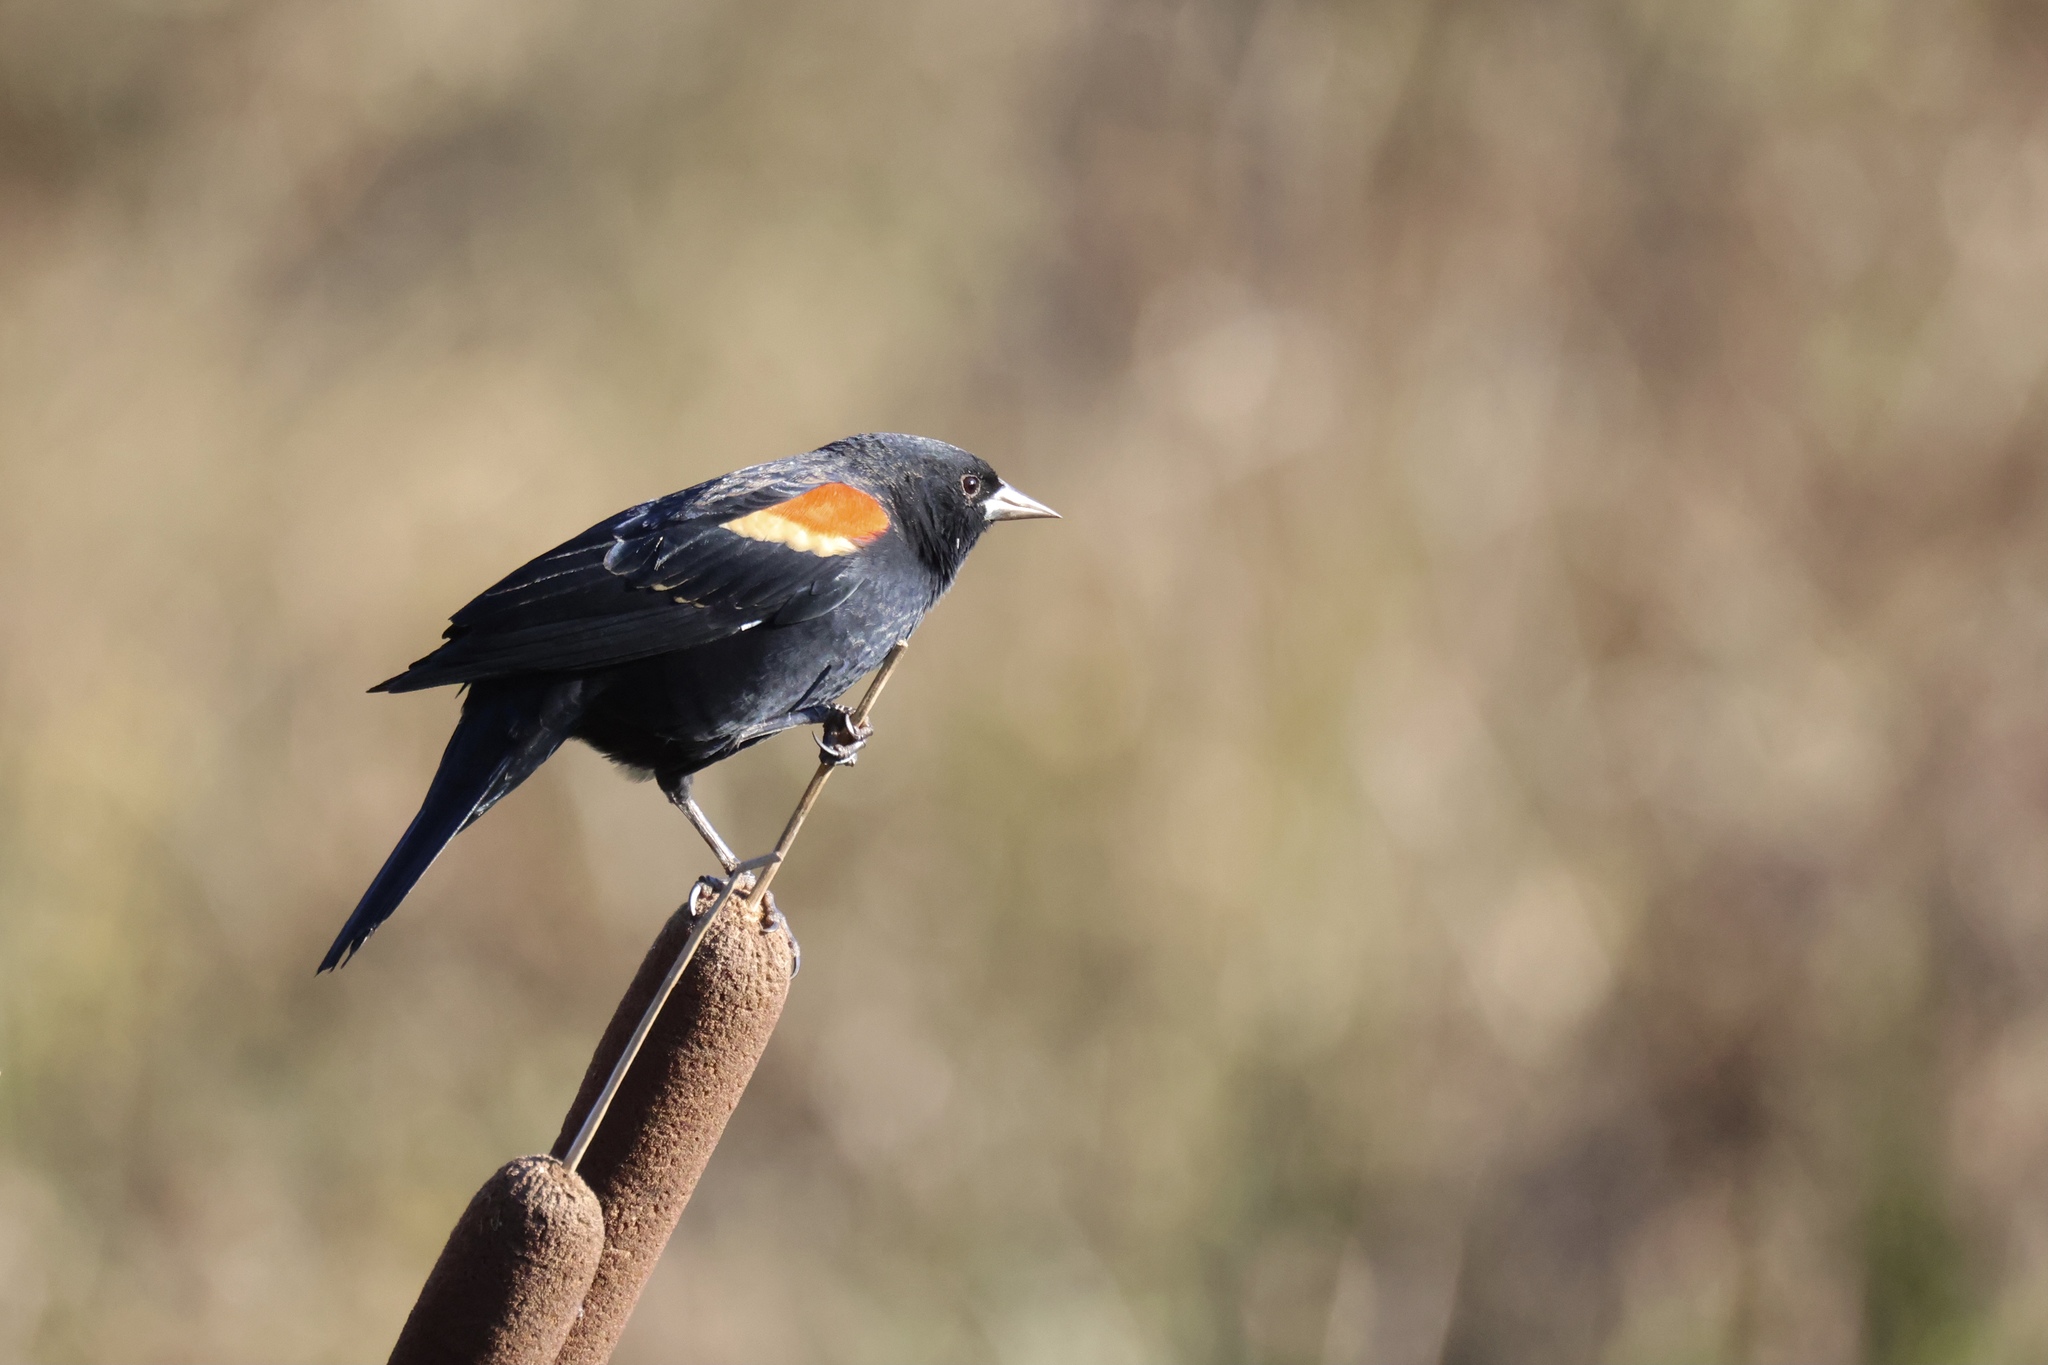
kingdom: Animalia
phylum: Chordata
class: Aves
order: Passeriformes
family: Icteridae
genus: Agelaius
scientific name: Agelaius phoeniceus
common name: Red-winged blackbird
